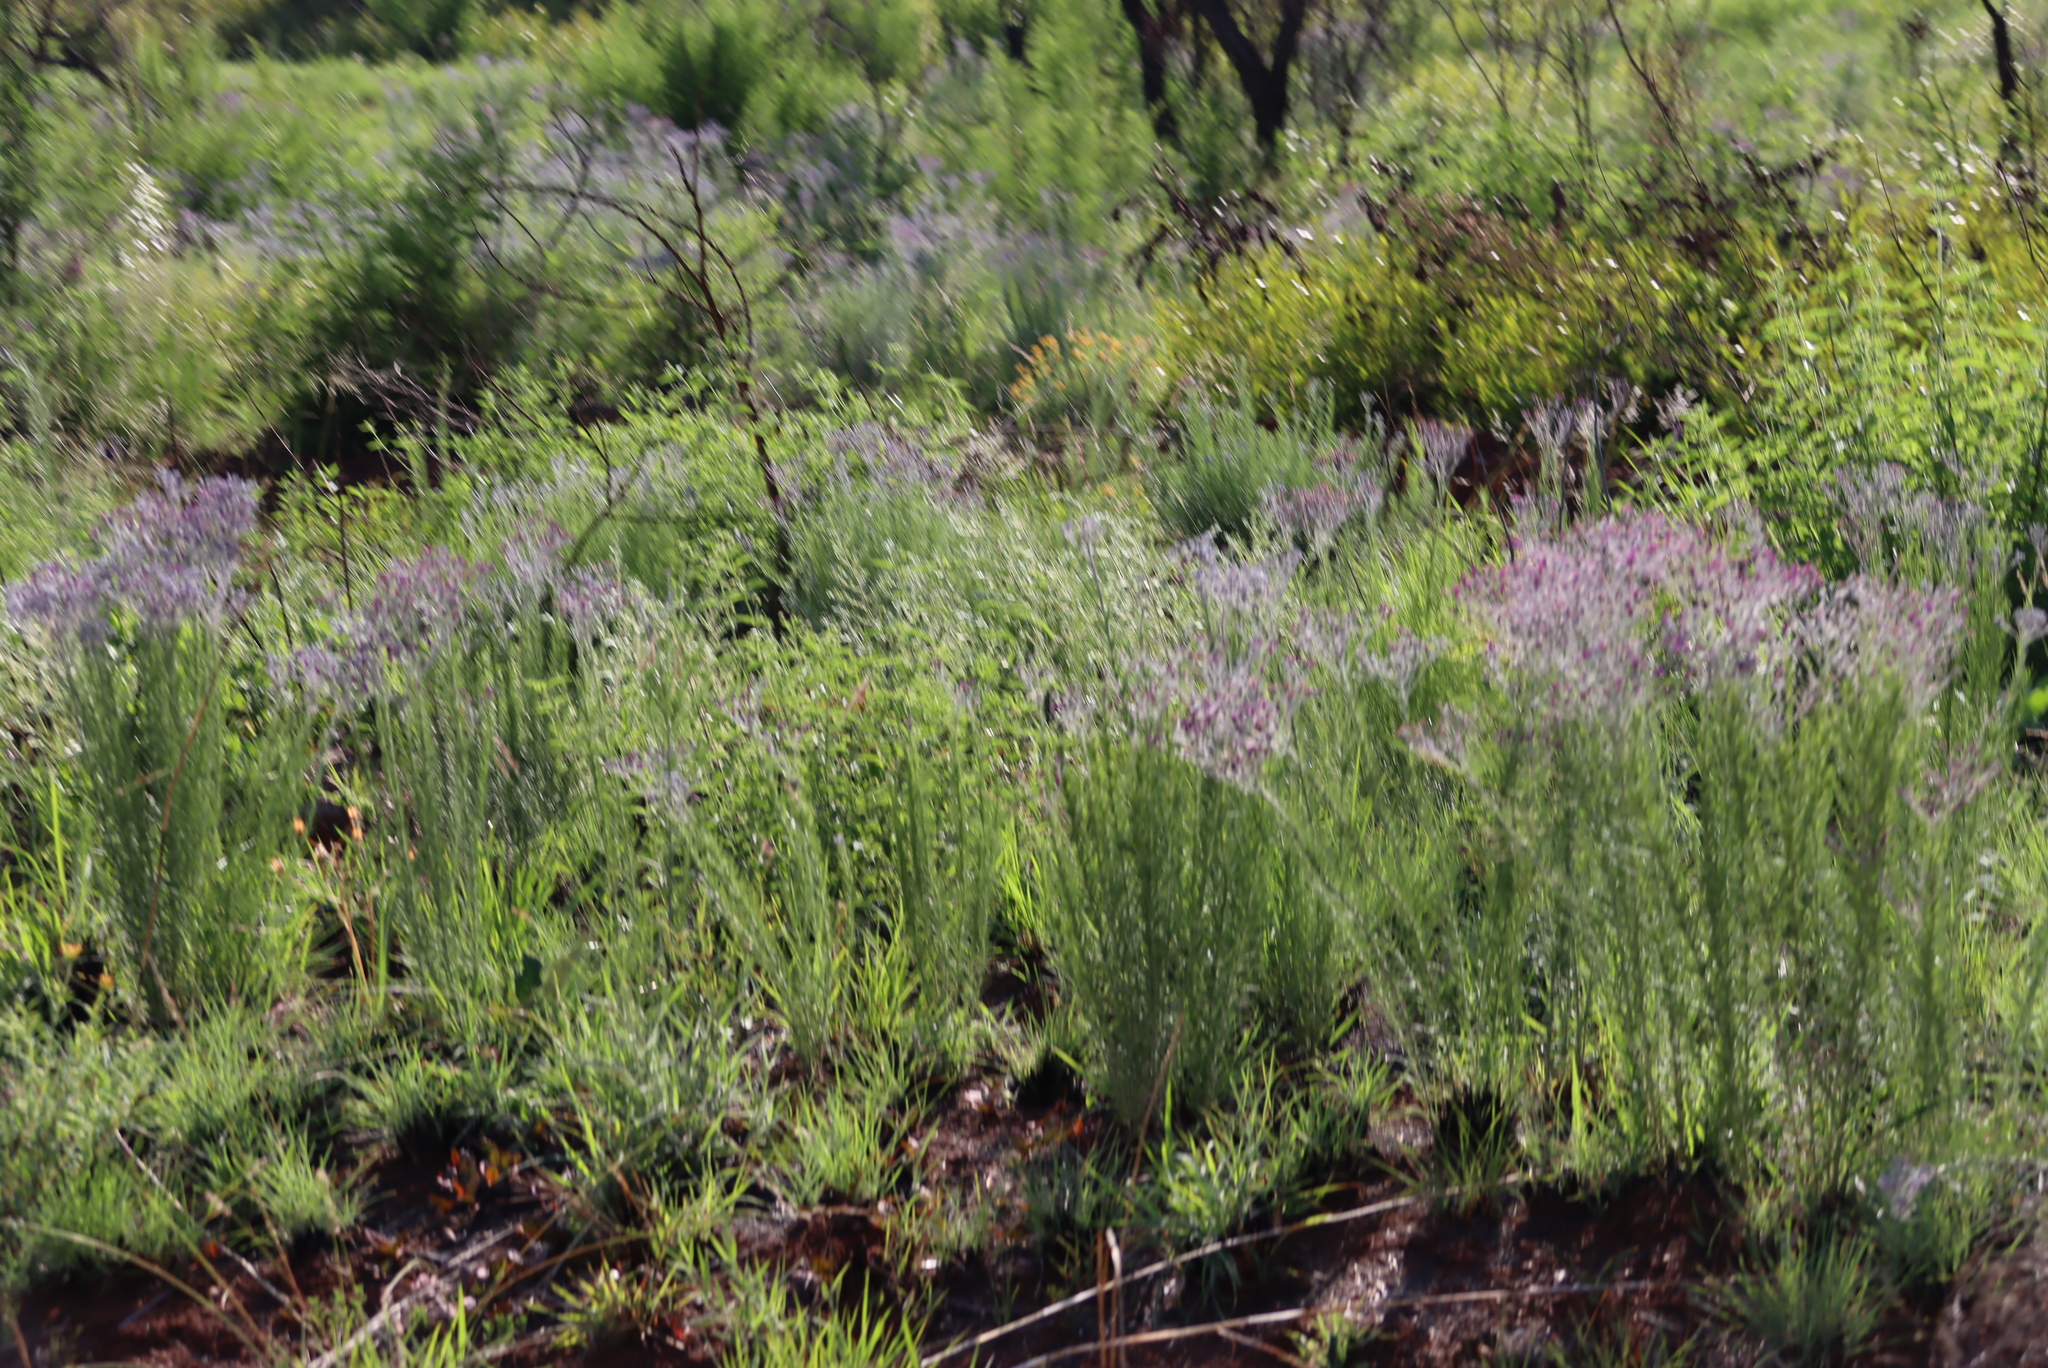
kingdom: Plantae
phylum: Tracheophyta
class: Magnoliopsida
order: Asterales
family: Asteraceae
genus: Hilliardiella
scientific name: Hilliardiella capensis
